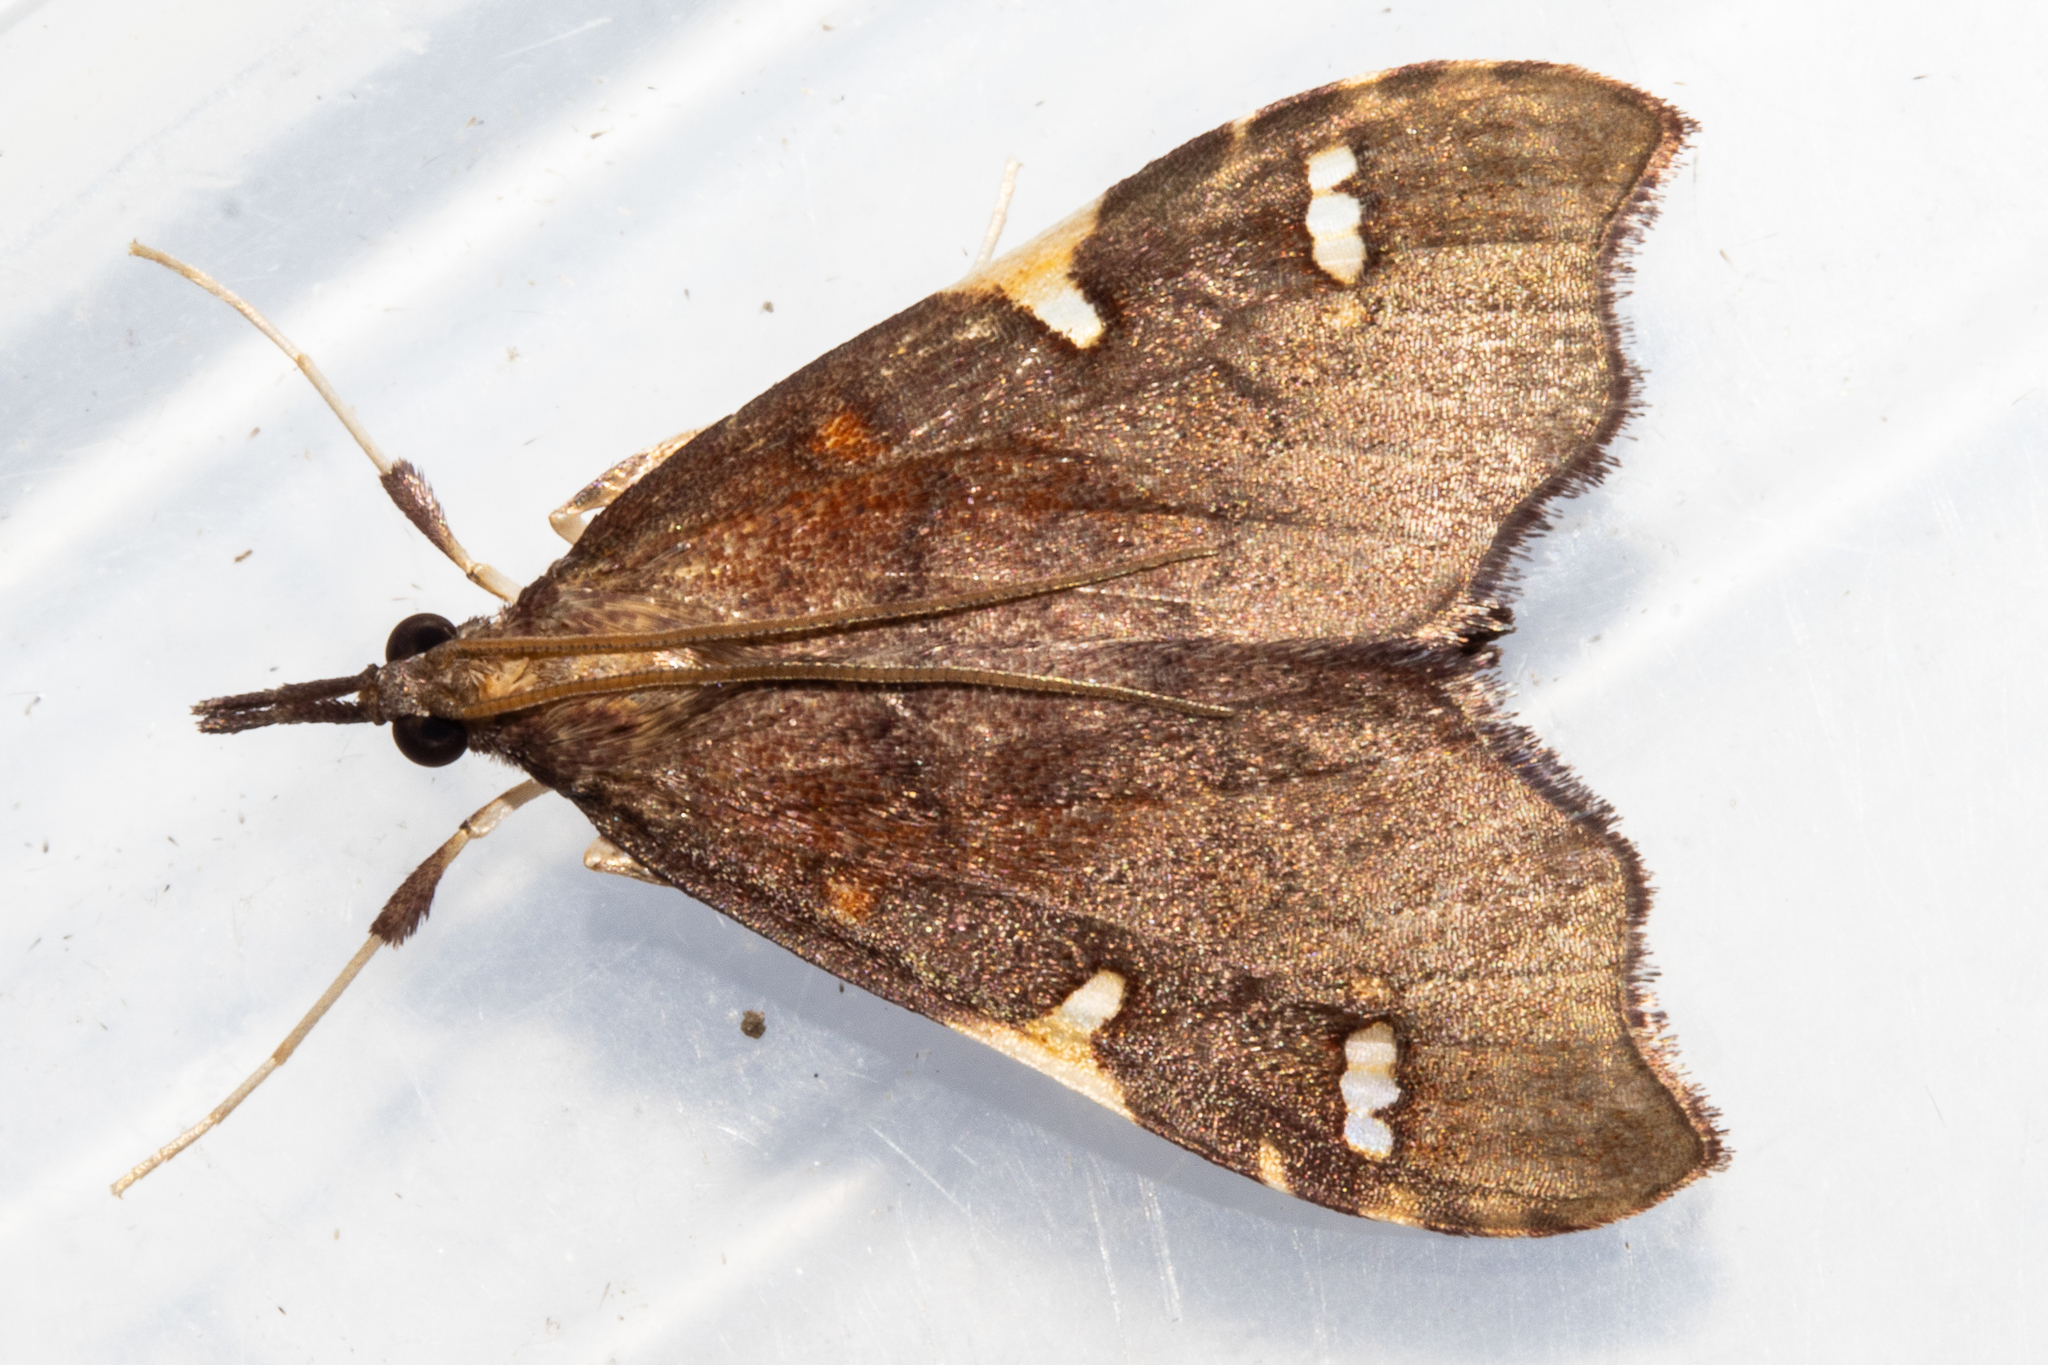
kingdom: Animalia
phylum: Arthropoda
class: Insecta
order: Lepidoptera
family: Crambidae
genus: Deana
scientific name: Deana hybreasalis
